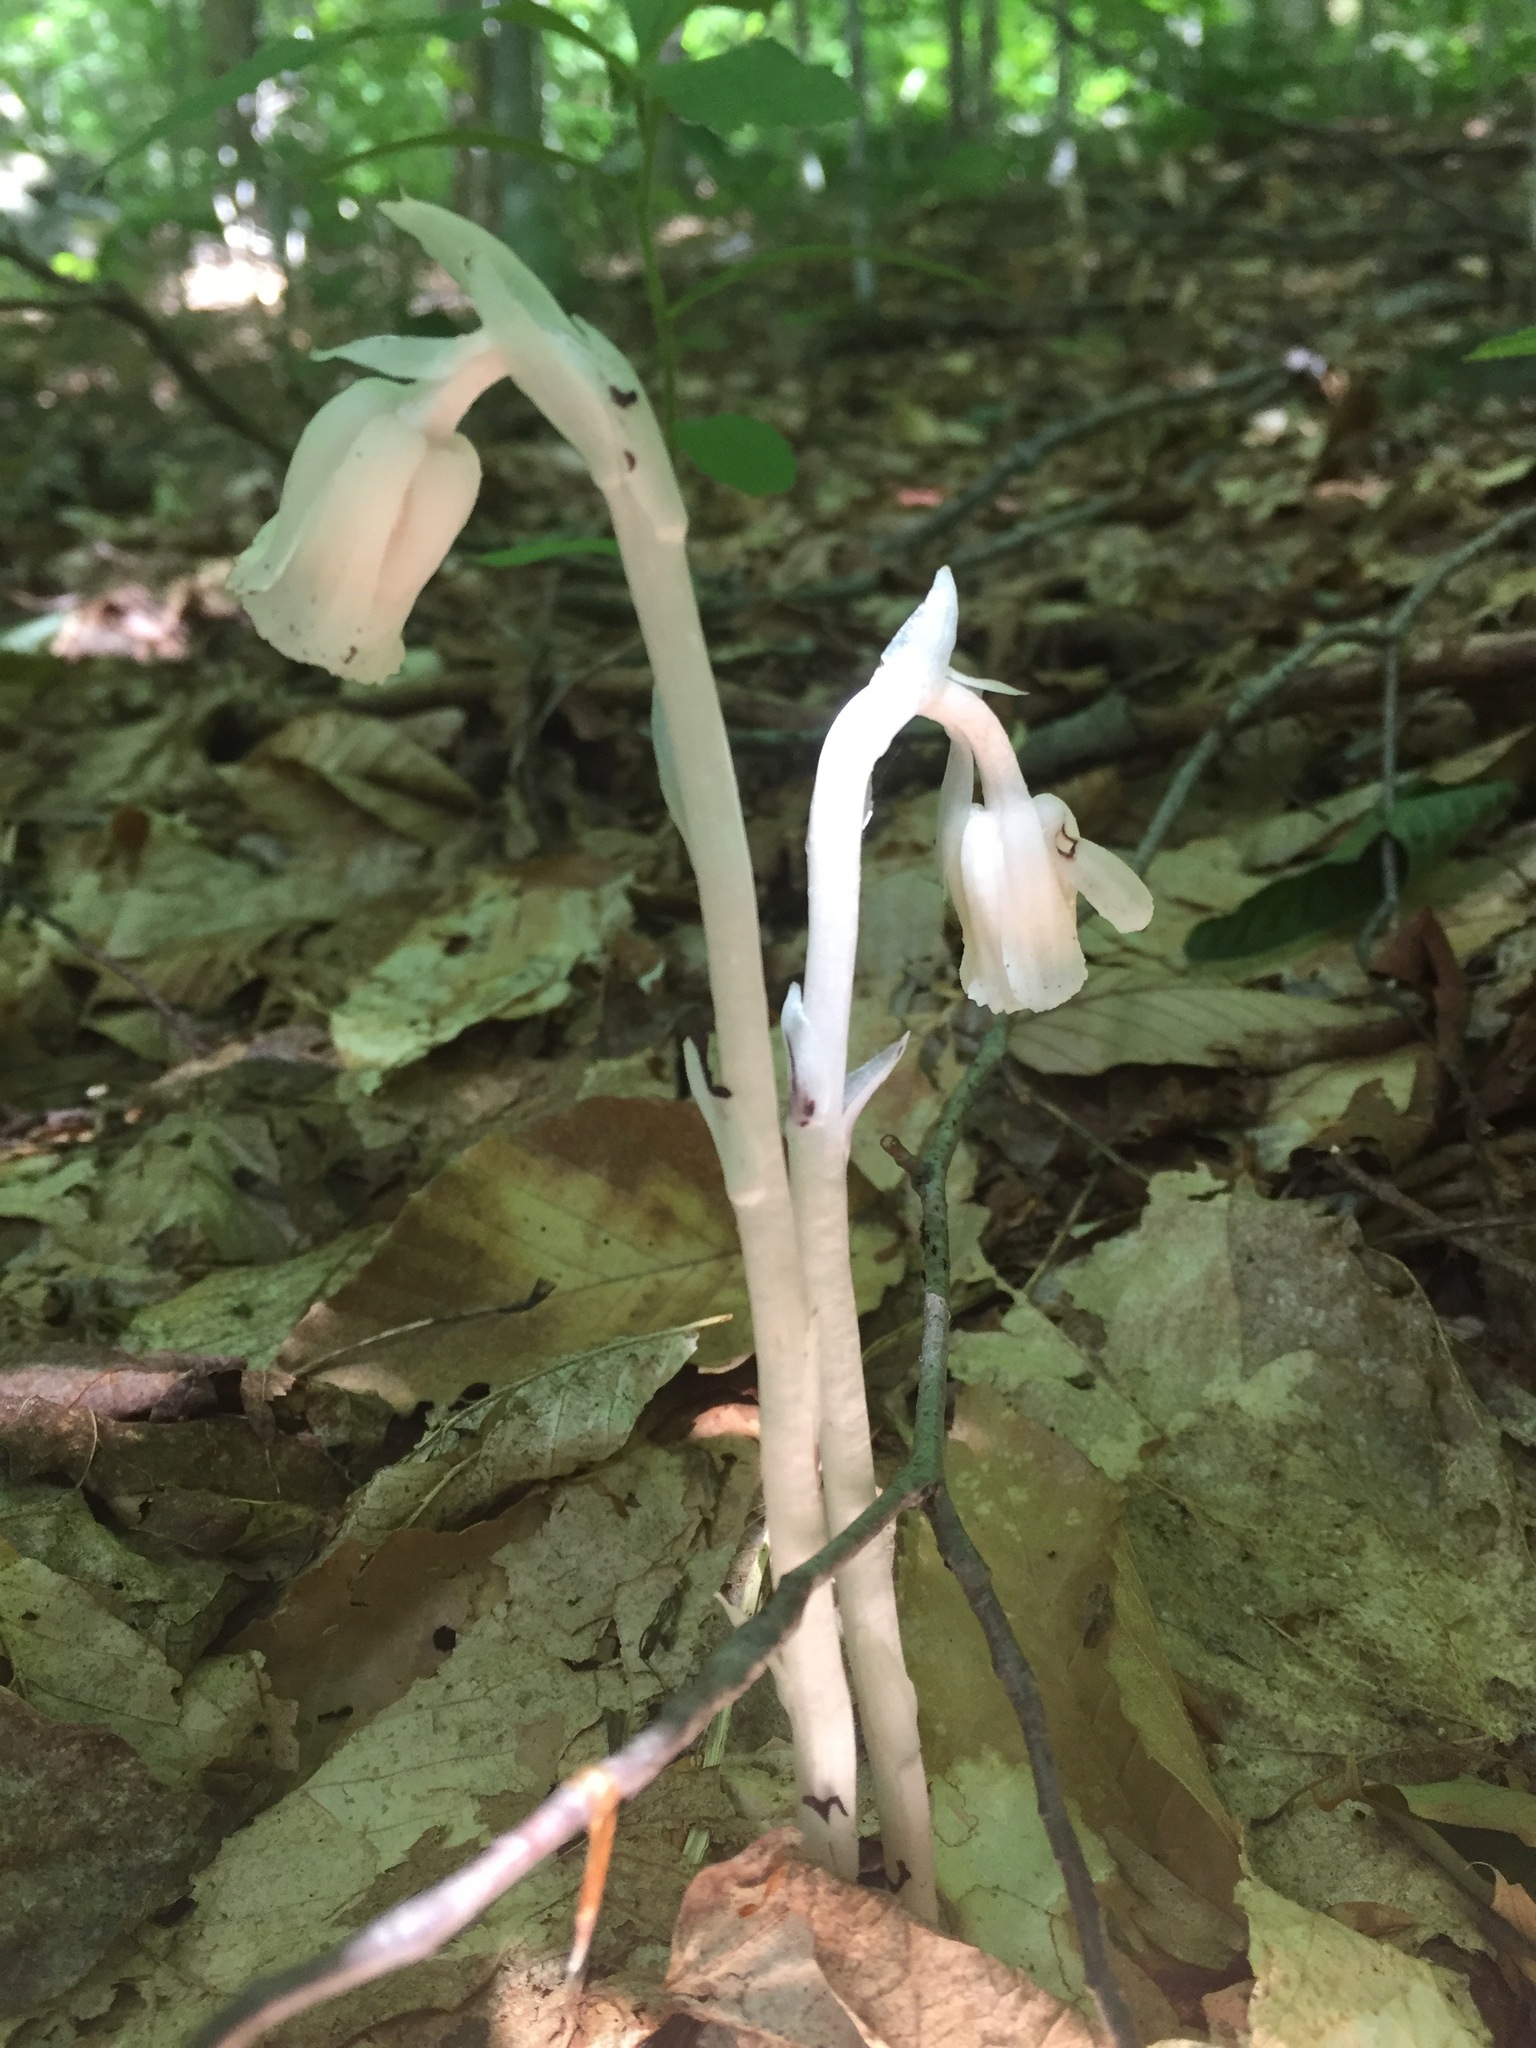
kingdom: Plantae
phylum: Tracheophyta
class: Magnoliopsida
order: Ericales
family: Ericaceae
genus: Monotropa
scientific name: Monotropa uniflora
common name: Convulsion root
